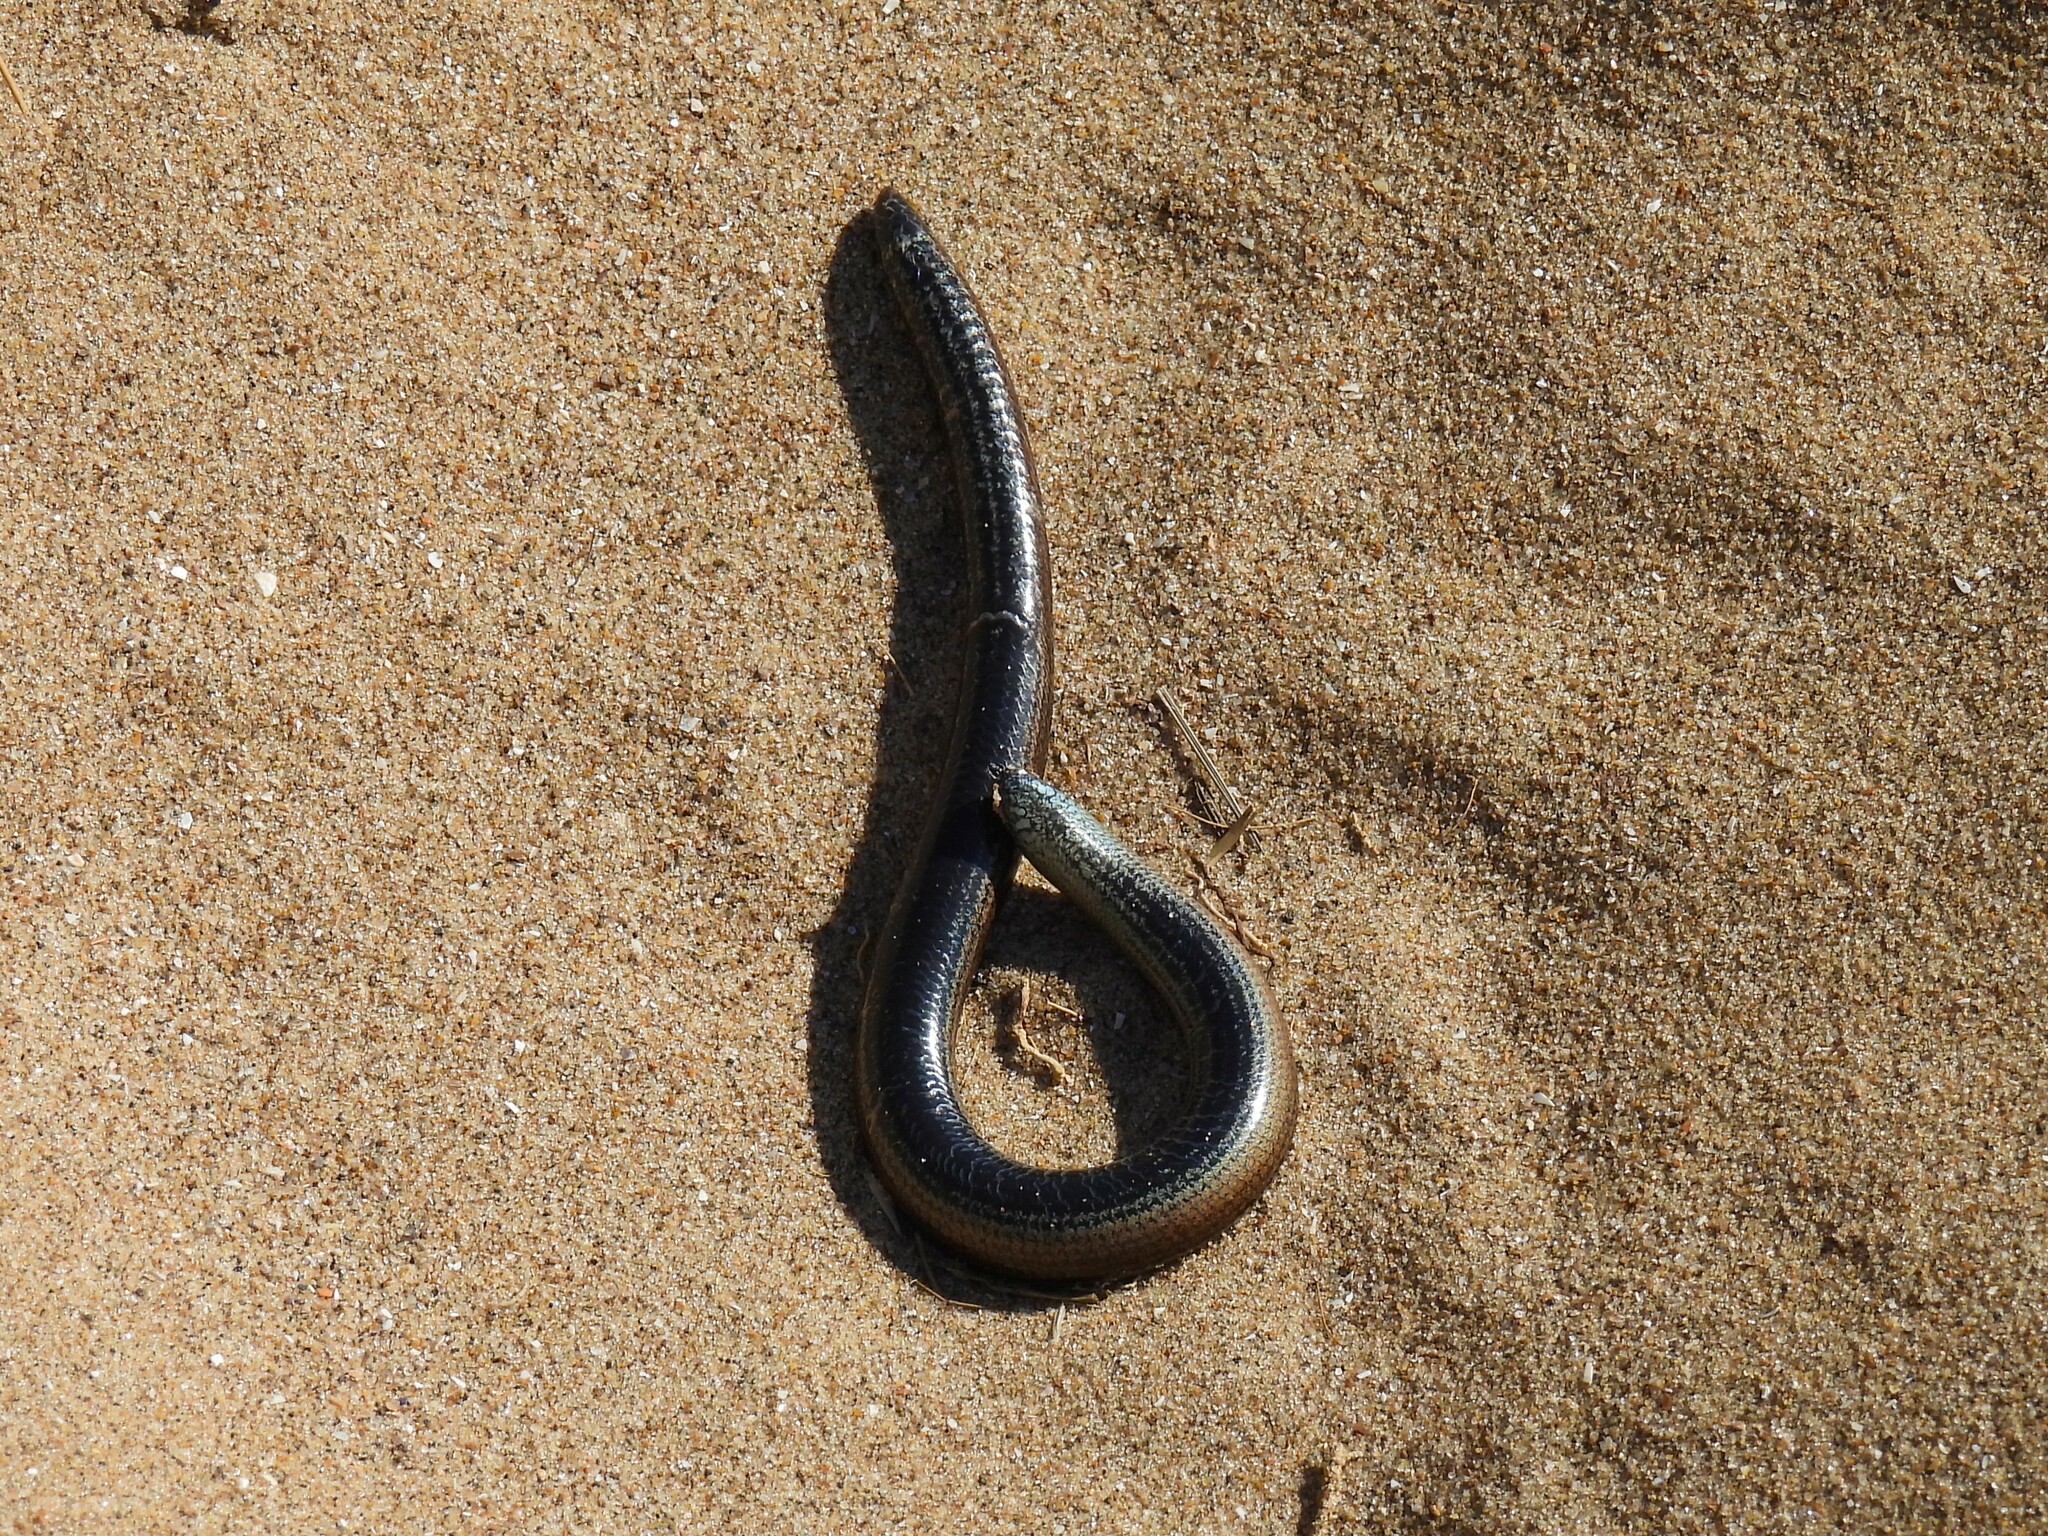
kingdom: Animalia
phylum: Chordata
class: Squamata
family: Anguidae
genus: Anguis
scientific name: Anguis fragilis
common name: Slow worm
